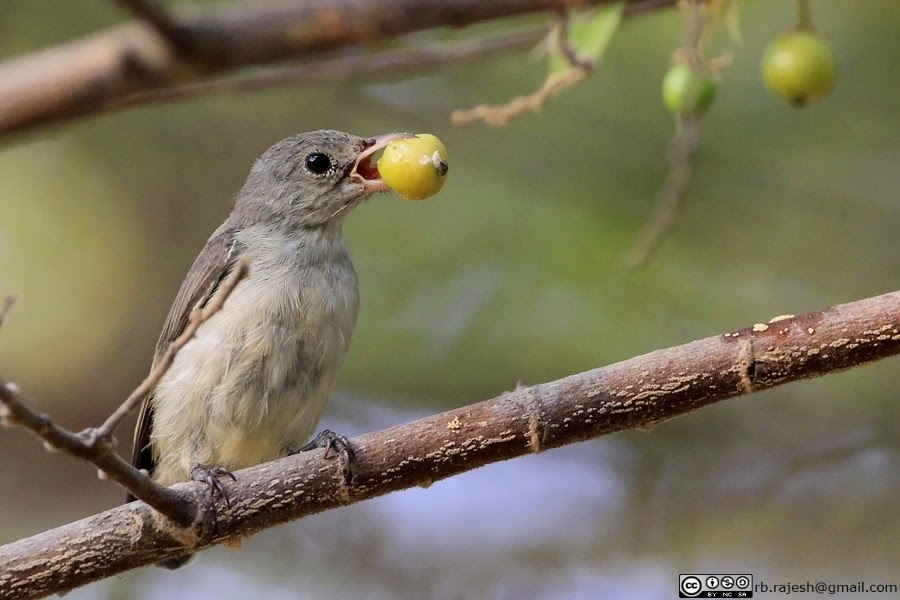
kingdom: Animalia
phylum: Chordata
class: Aves
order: Passeriformes
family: Dicaeidae
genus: Dicaeum
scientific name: Dicaeum erythrorhynchos
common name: Pale-billed flowerpecker
